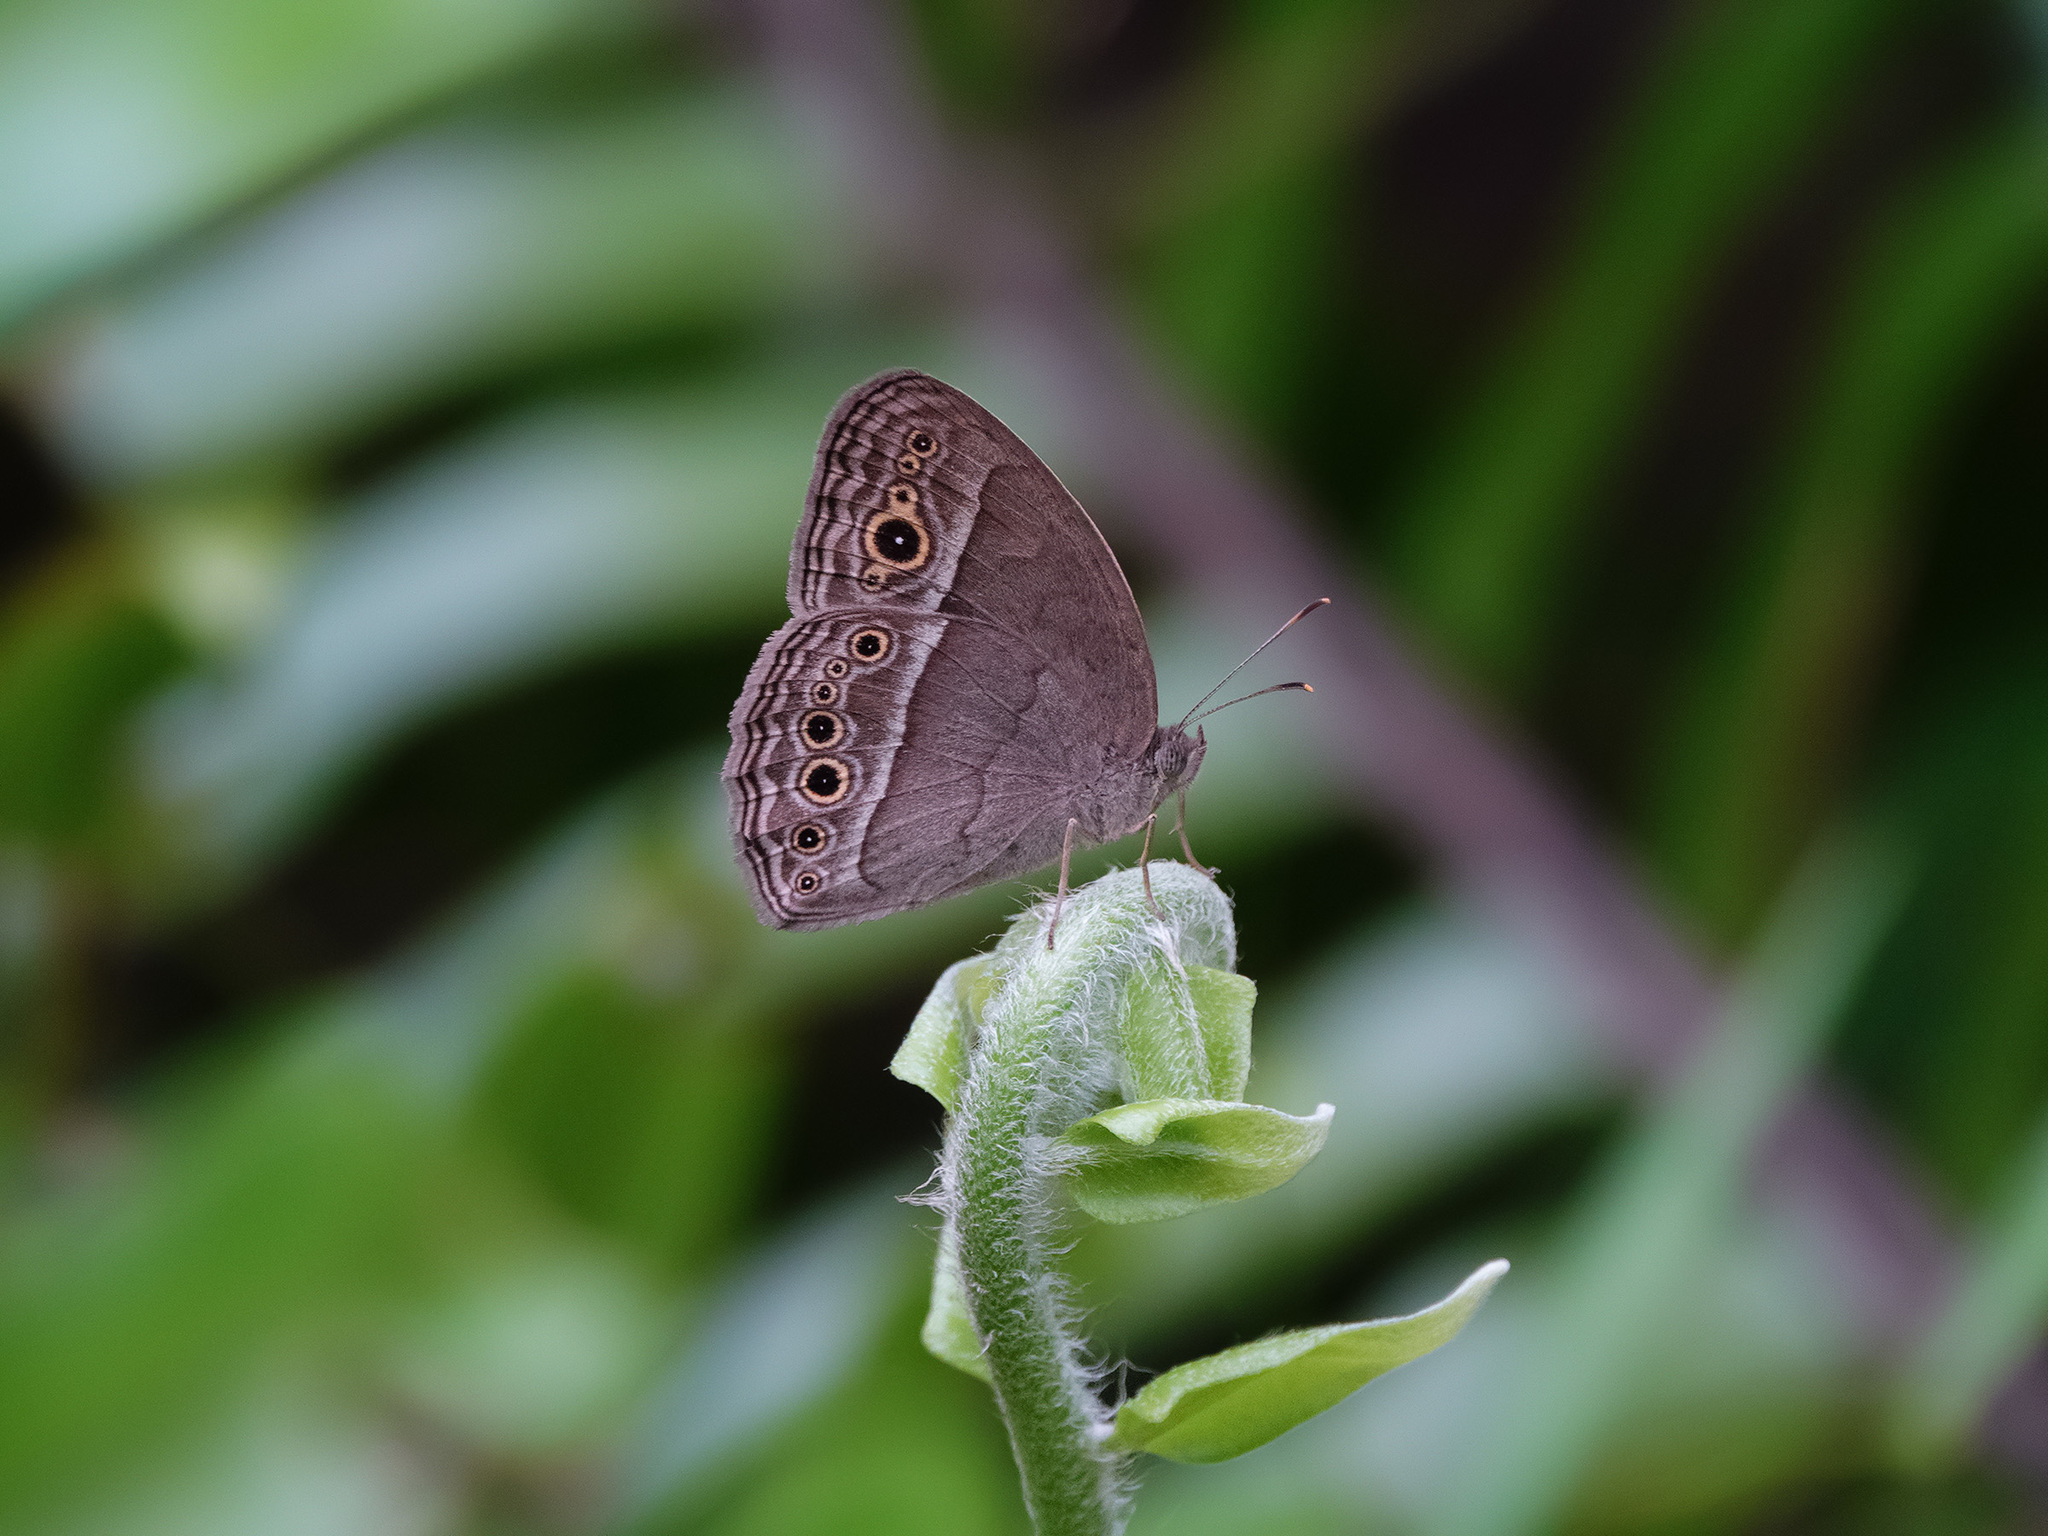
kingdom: Animalia
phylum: Arthropoda
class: Insecta
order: Lepidoptera
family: Nymphalidae
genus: Mycalesis
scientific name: Mycalesis perseoides
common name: Burmese bushbrown
